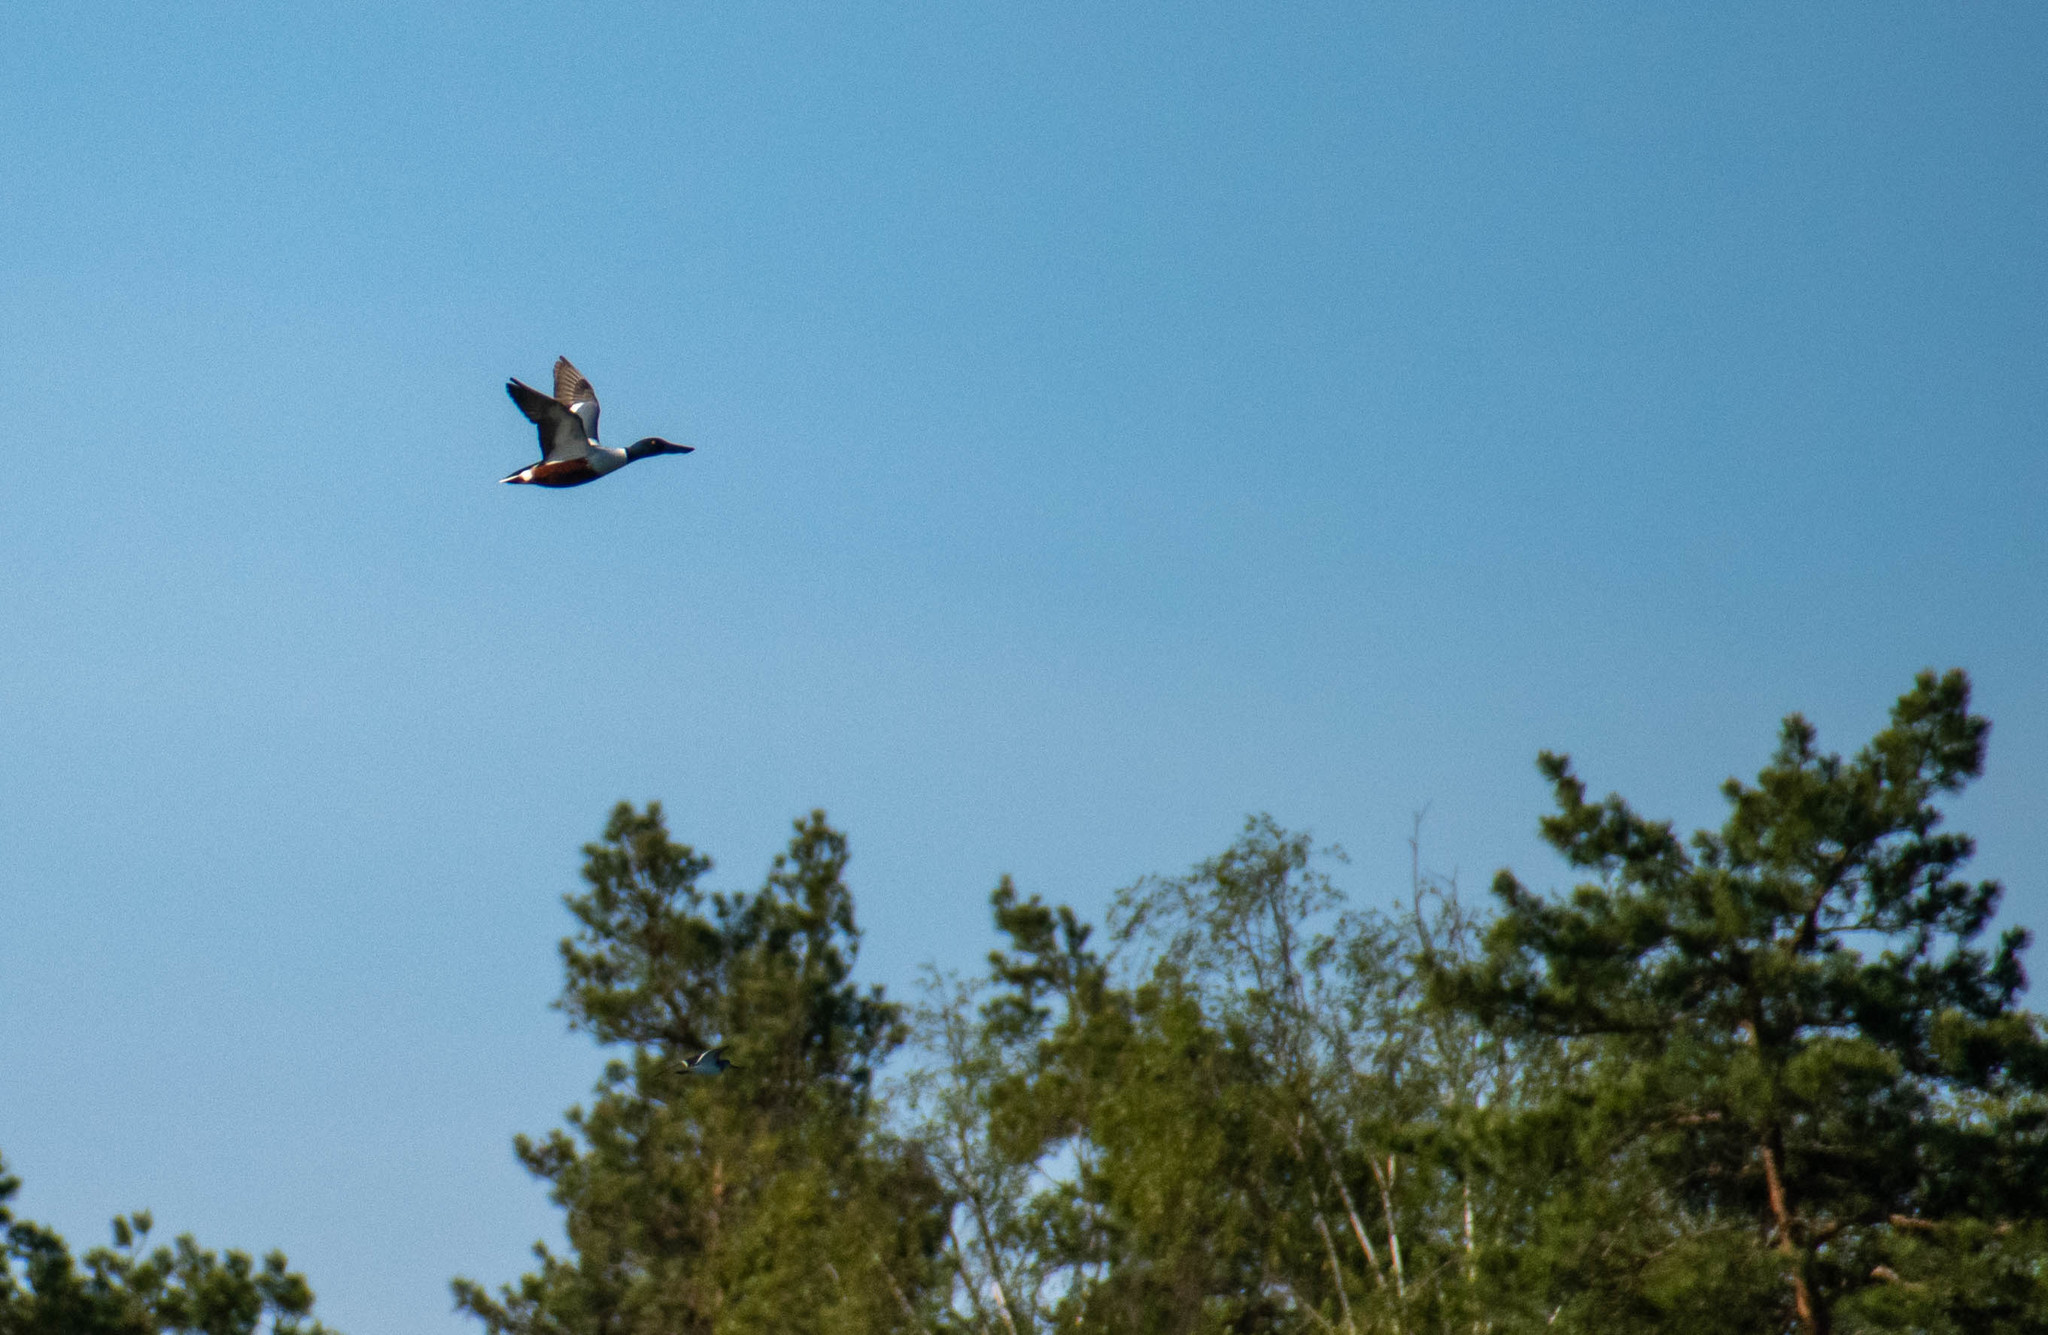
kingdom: Animalia
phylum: Chordata
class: Aves
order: Anseriformes
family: Anatidae
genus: Spatula
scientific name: Spatula clypeata
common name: Northern shoveler
